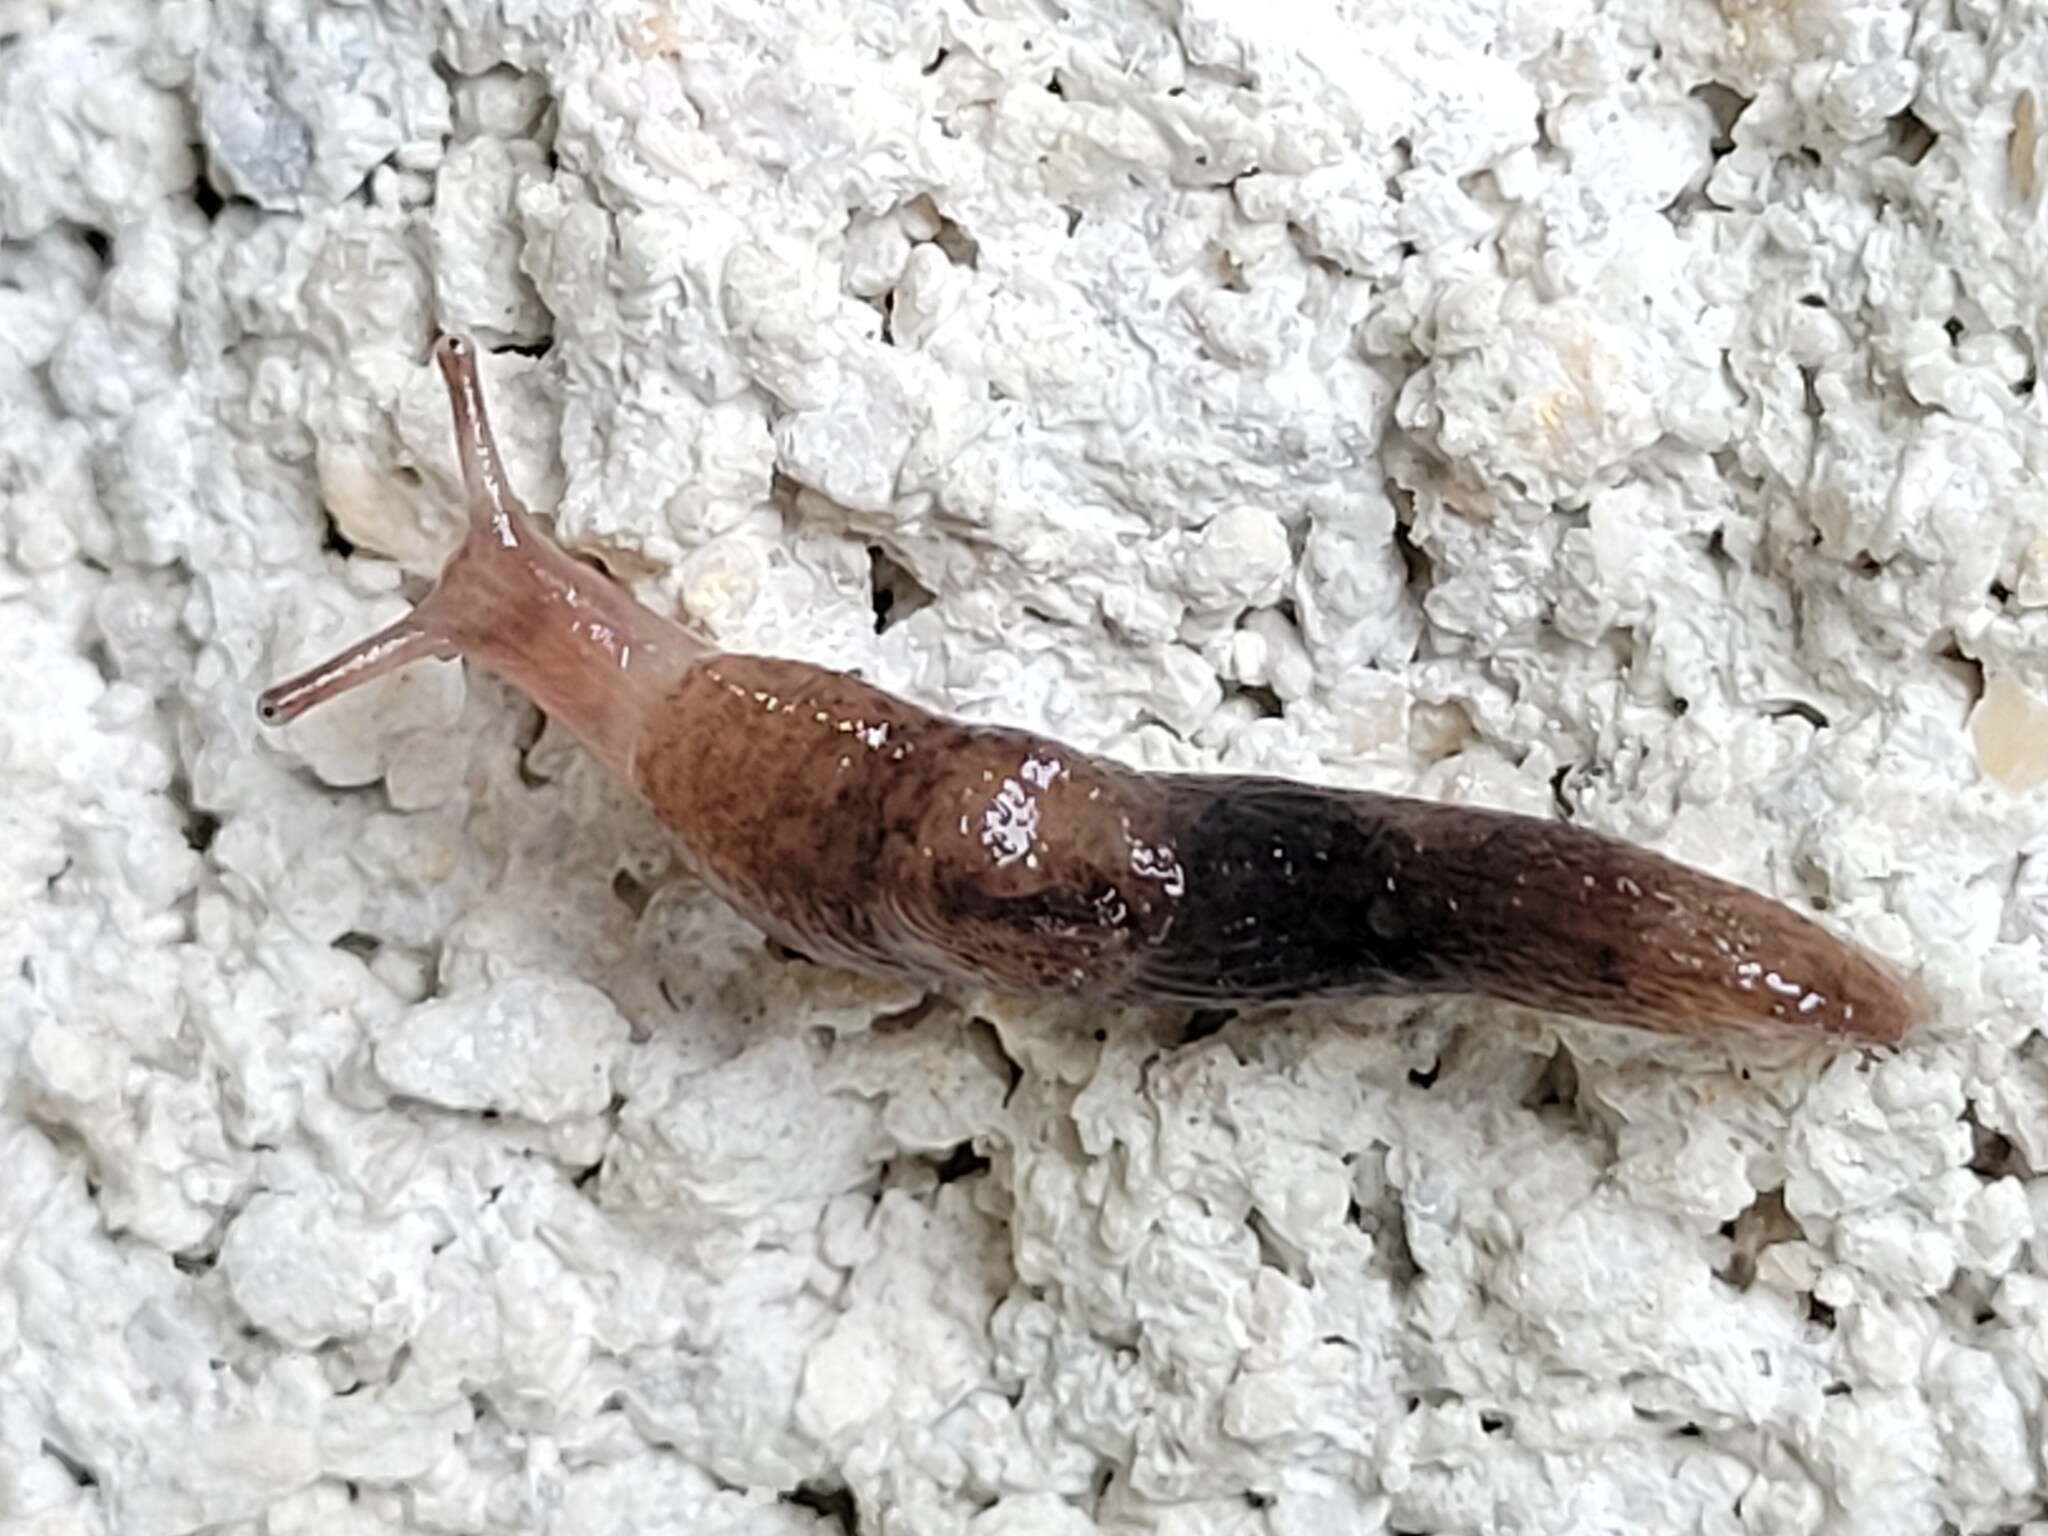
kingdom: Animalia
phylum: Mollusca
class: Gastropoda
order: Stylommatophora
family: Agriolimacidae
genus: Deroceras
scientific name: Deroceras reticulatum
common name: Gray field slug
